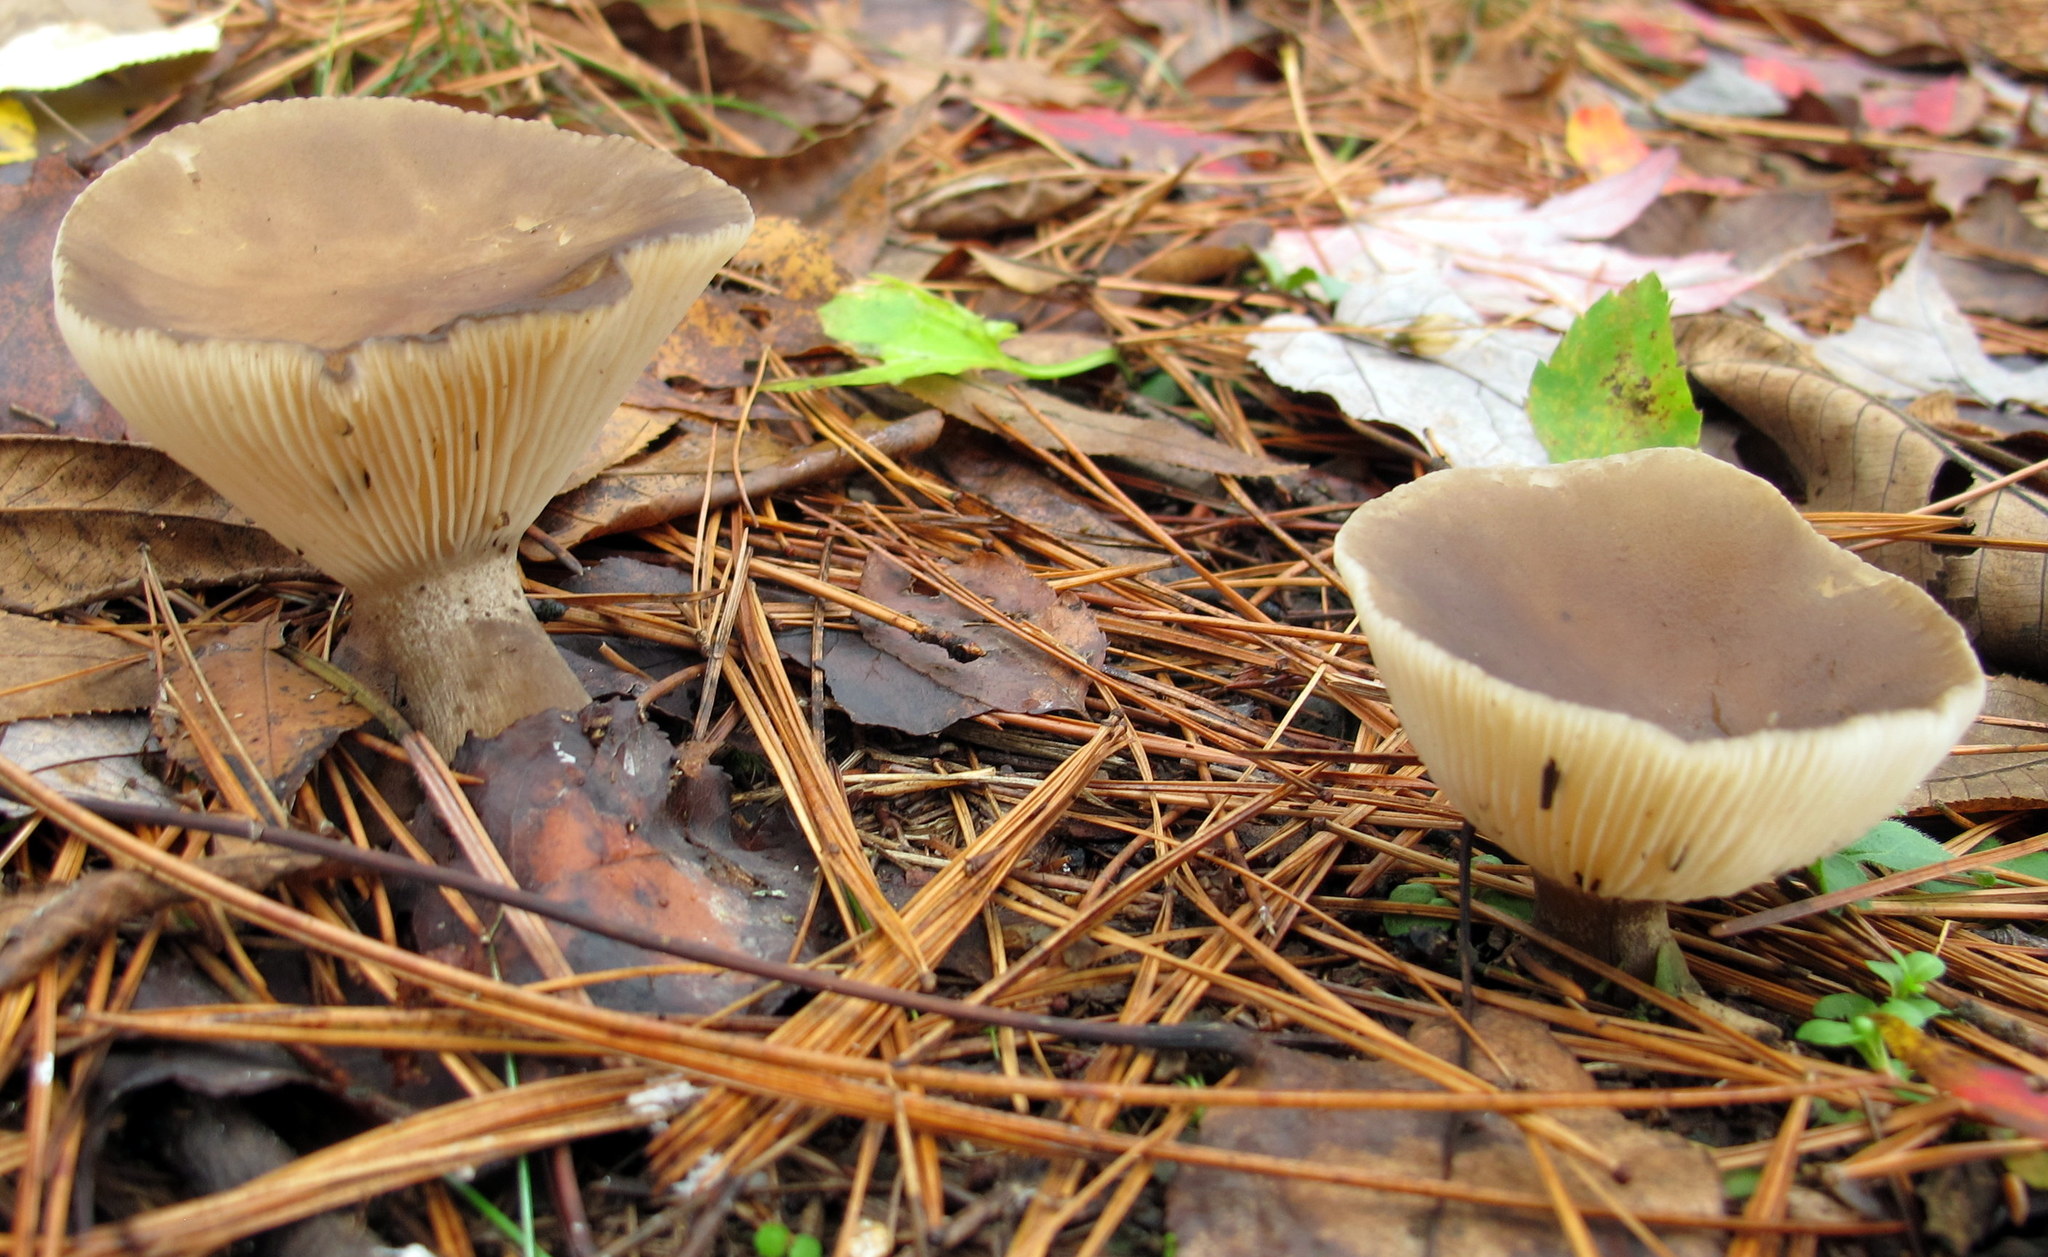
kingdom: Fungi
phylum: Basidiomycota
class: Agaricomycetes
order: Agaricales
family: Hygrophoraceae
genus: Ampulloclitocybe
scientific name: Ampulloclitocybe clavipes
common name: Club foot
